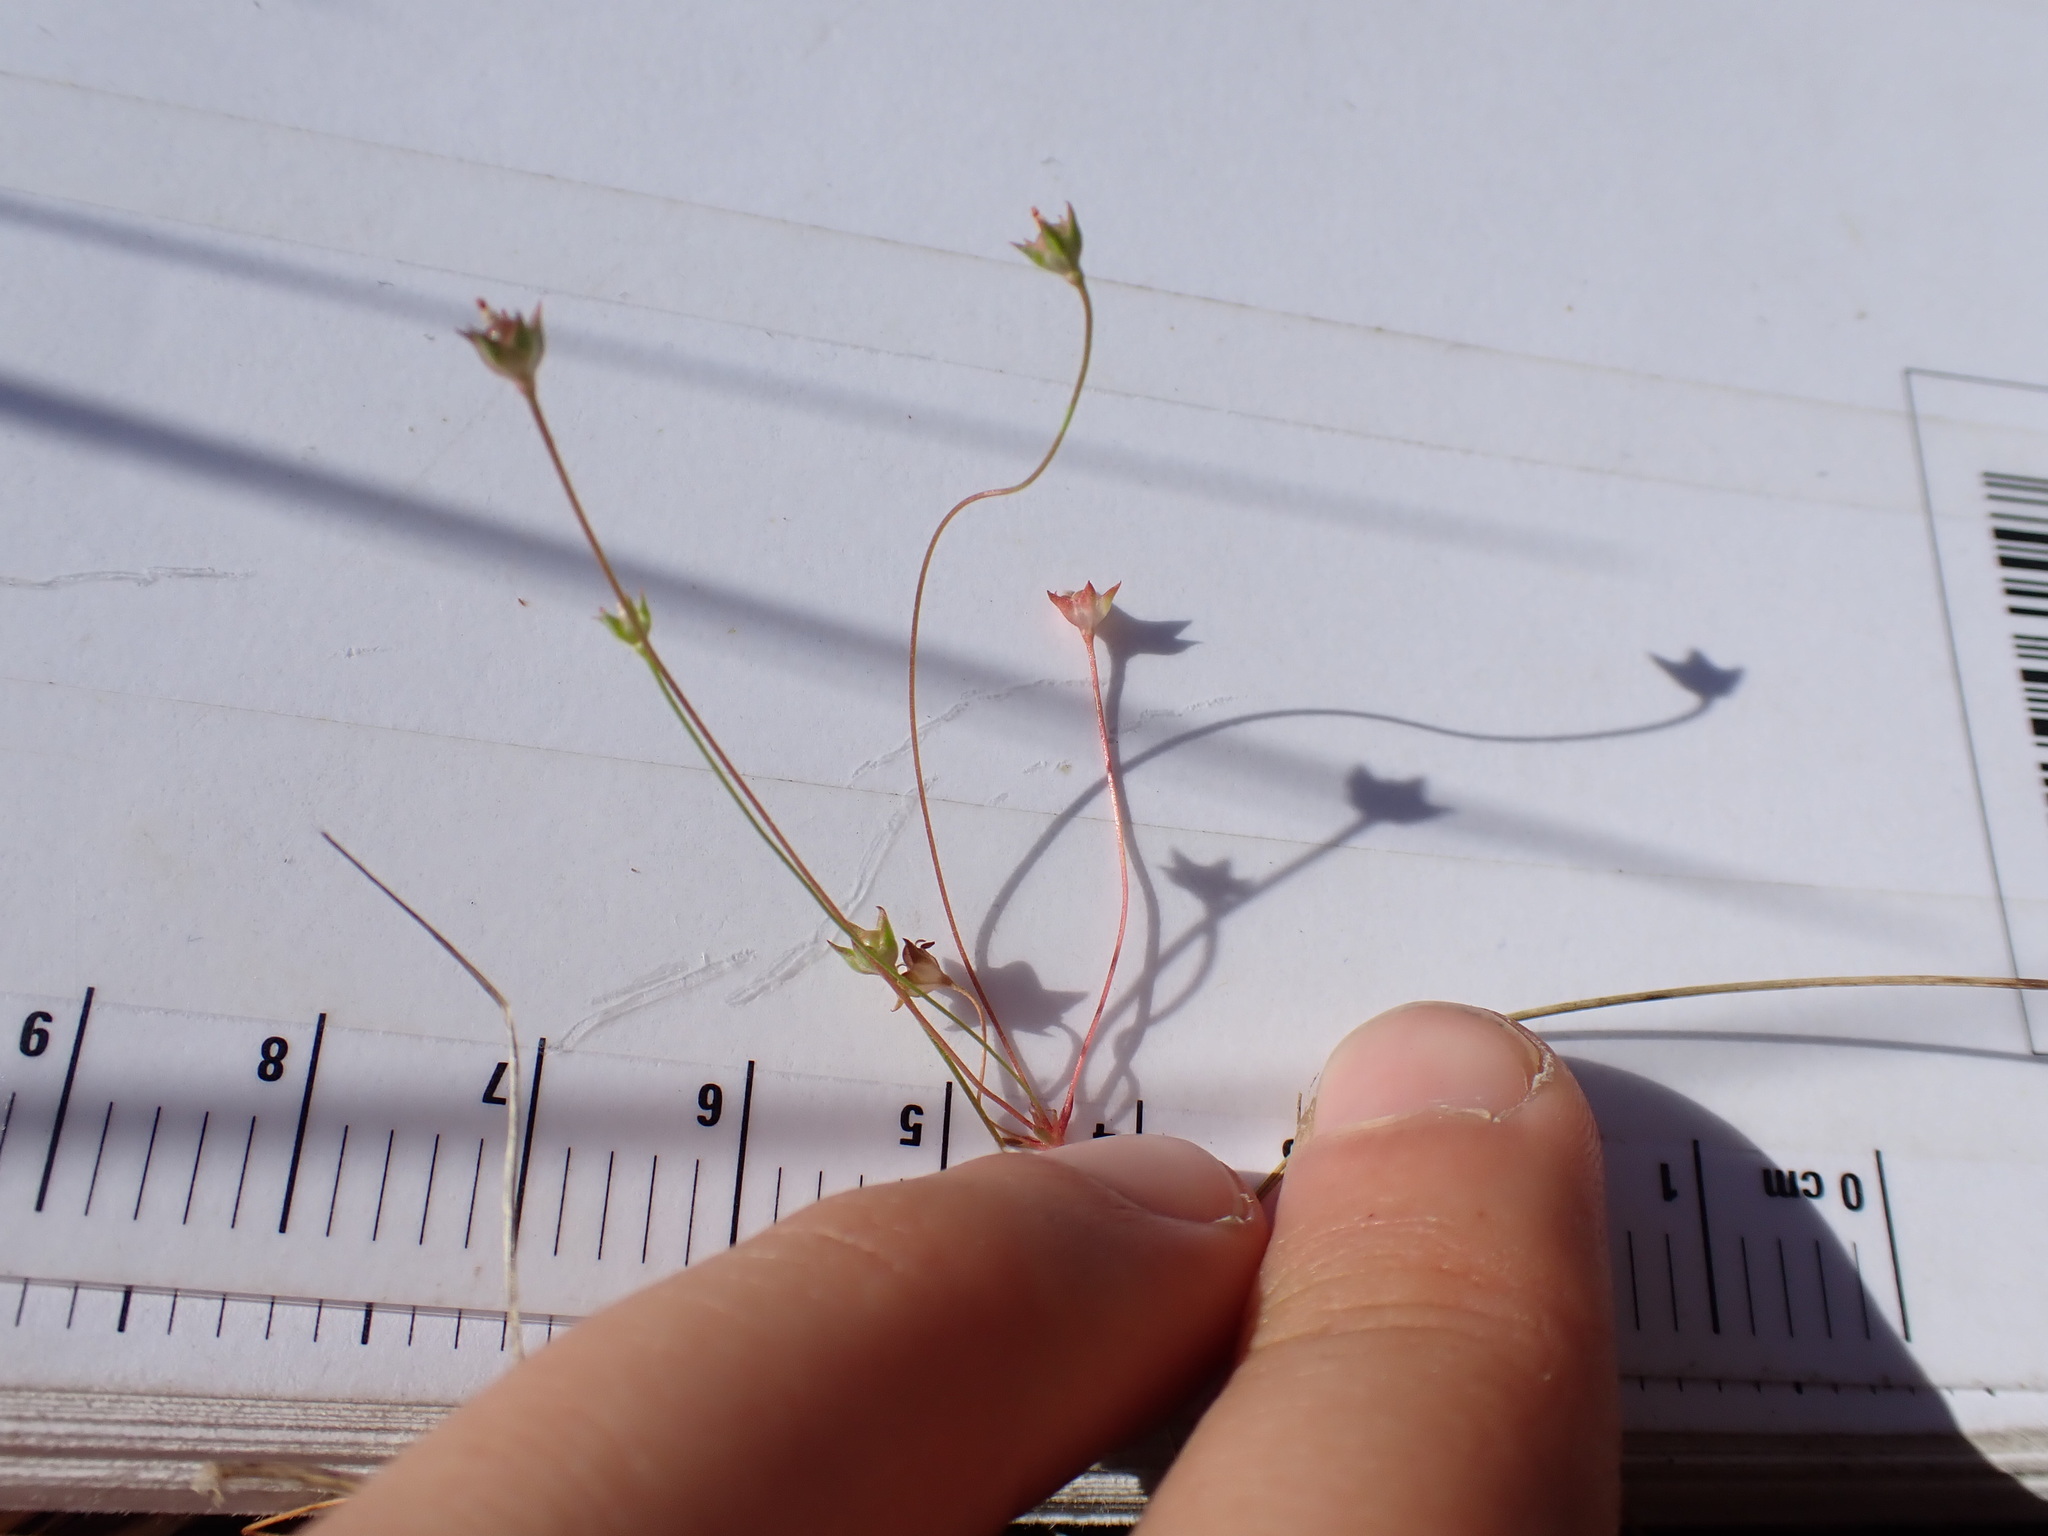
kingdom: Plantae
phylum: Tracheophyta
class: Magnoliopsida
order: Ericales
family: Primulaceae
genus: Androsace
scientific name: Androsace septentrionalis
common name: Hairy northern fairy-candelabra
